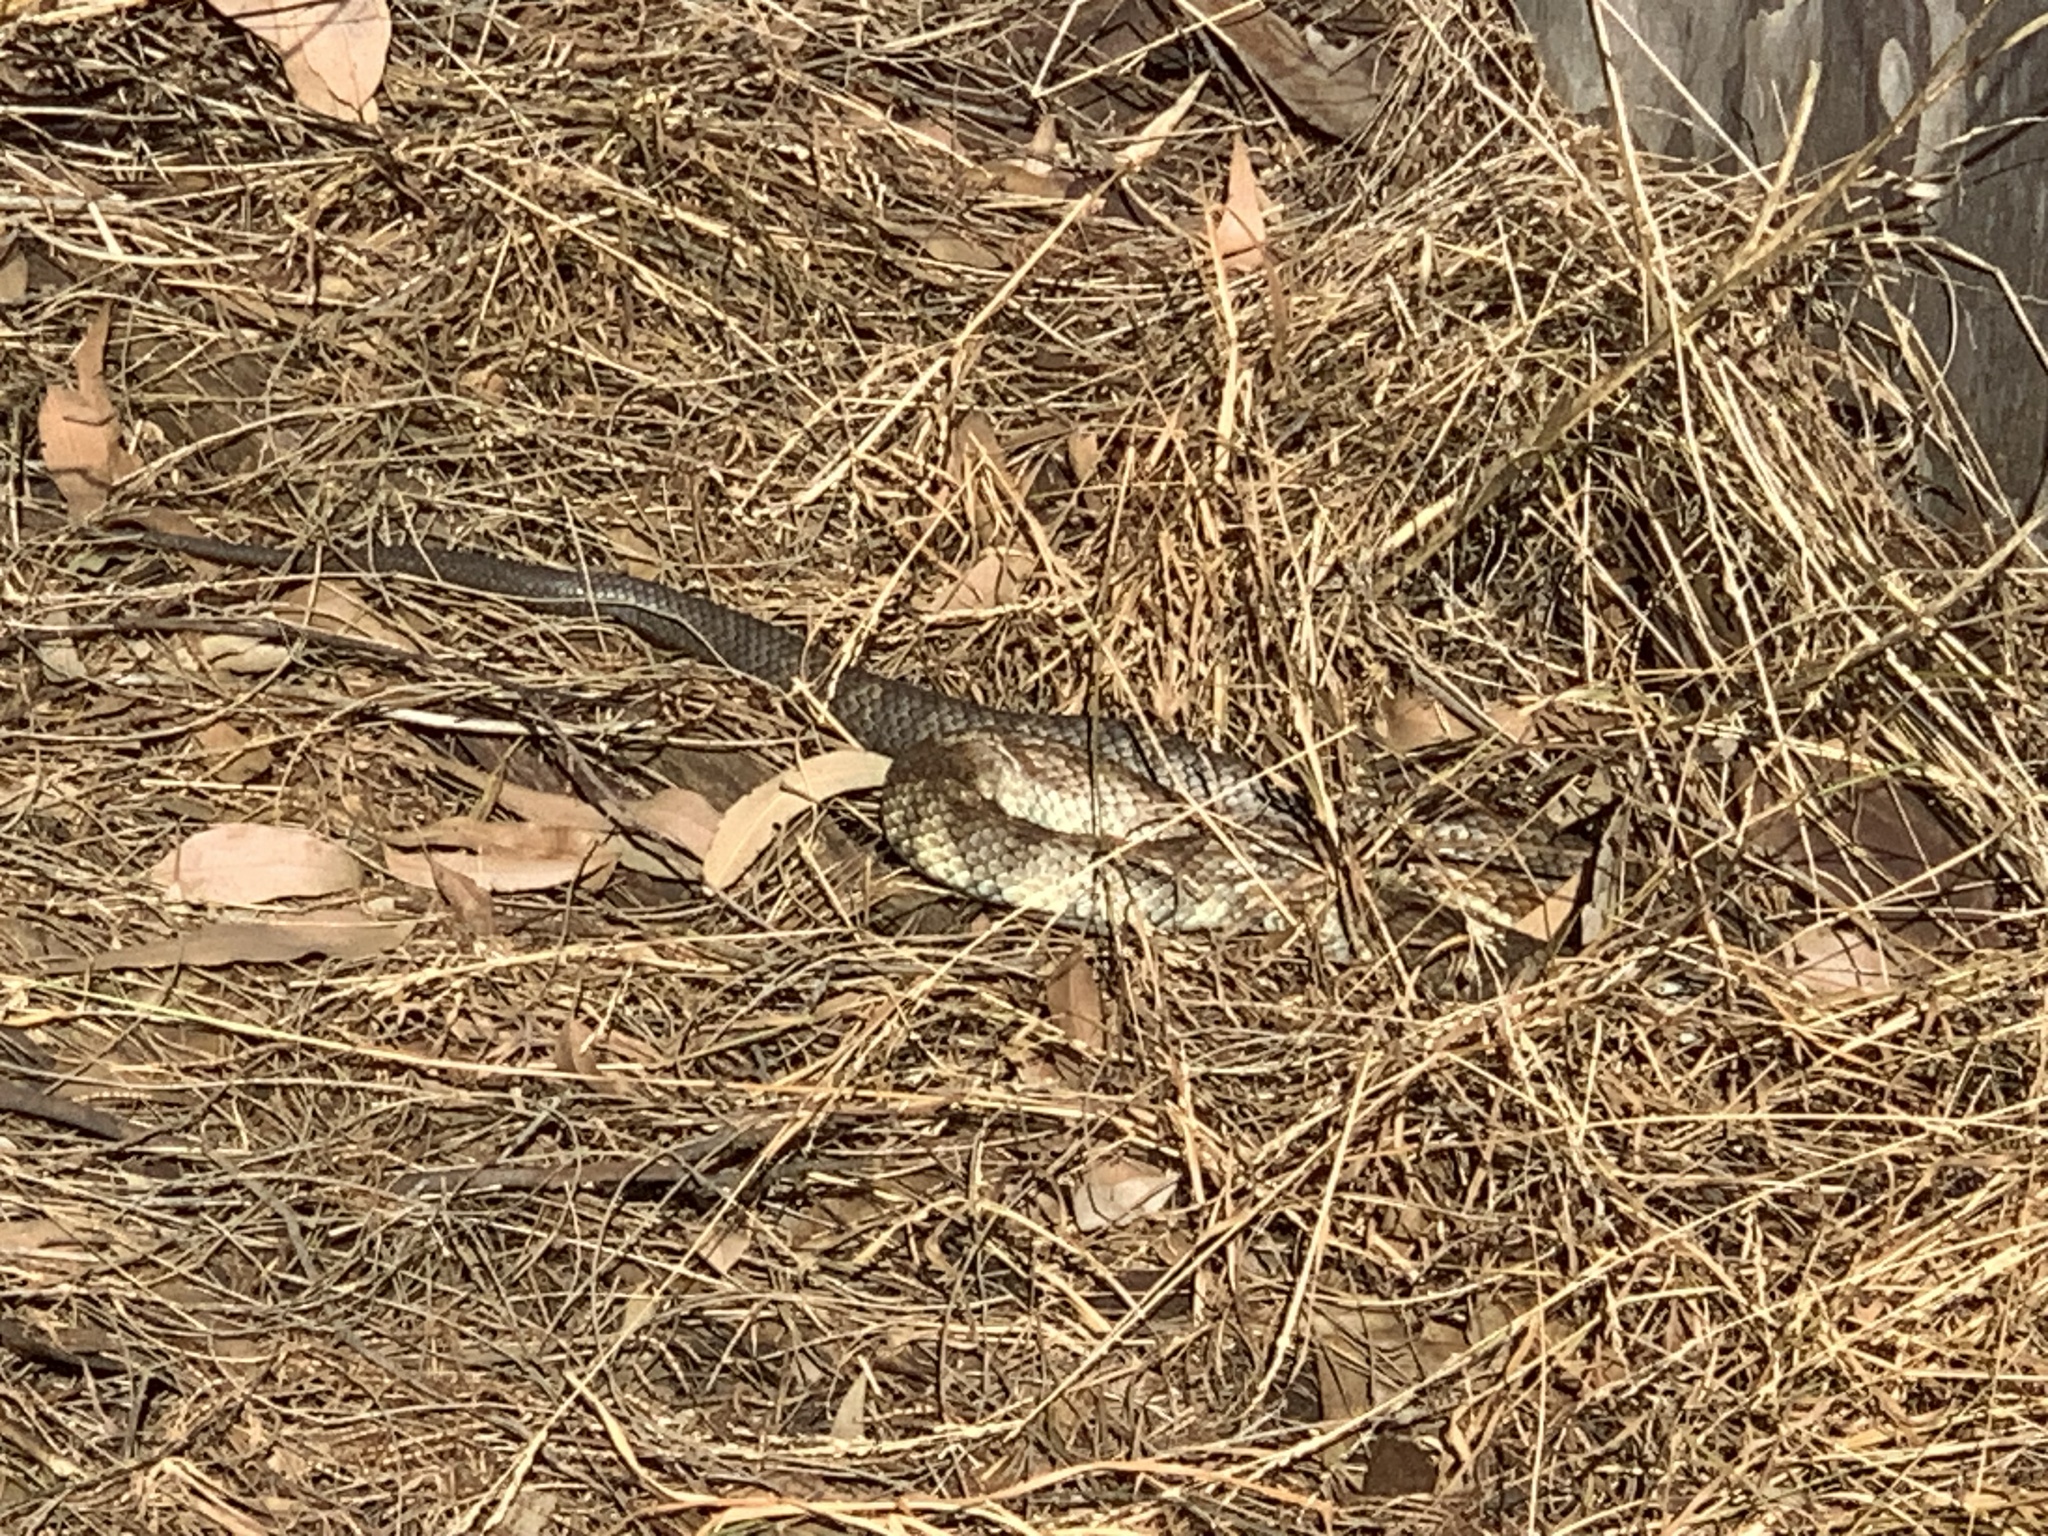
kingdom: Animalia
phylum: Chordata
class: Squamata
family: Elapidae
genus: Notechis
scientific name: Notechis scutatus
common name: Mainland tiger snake
